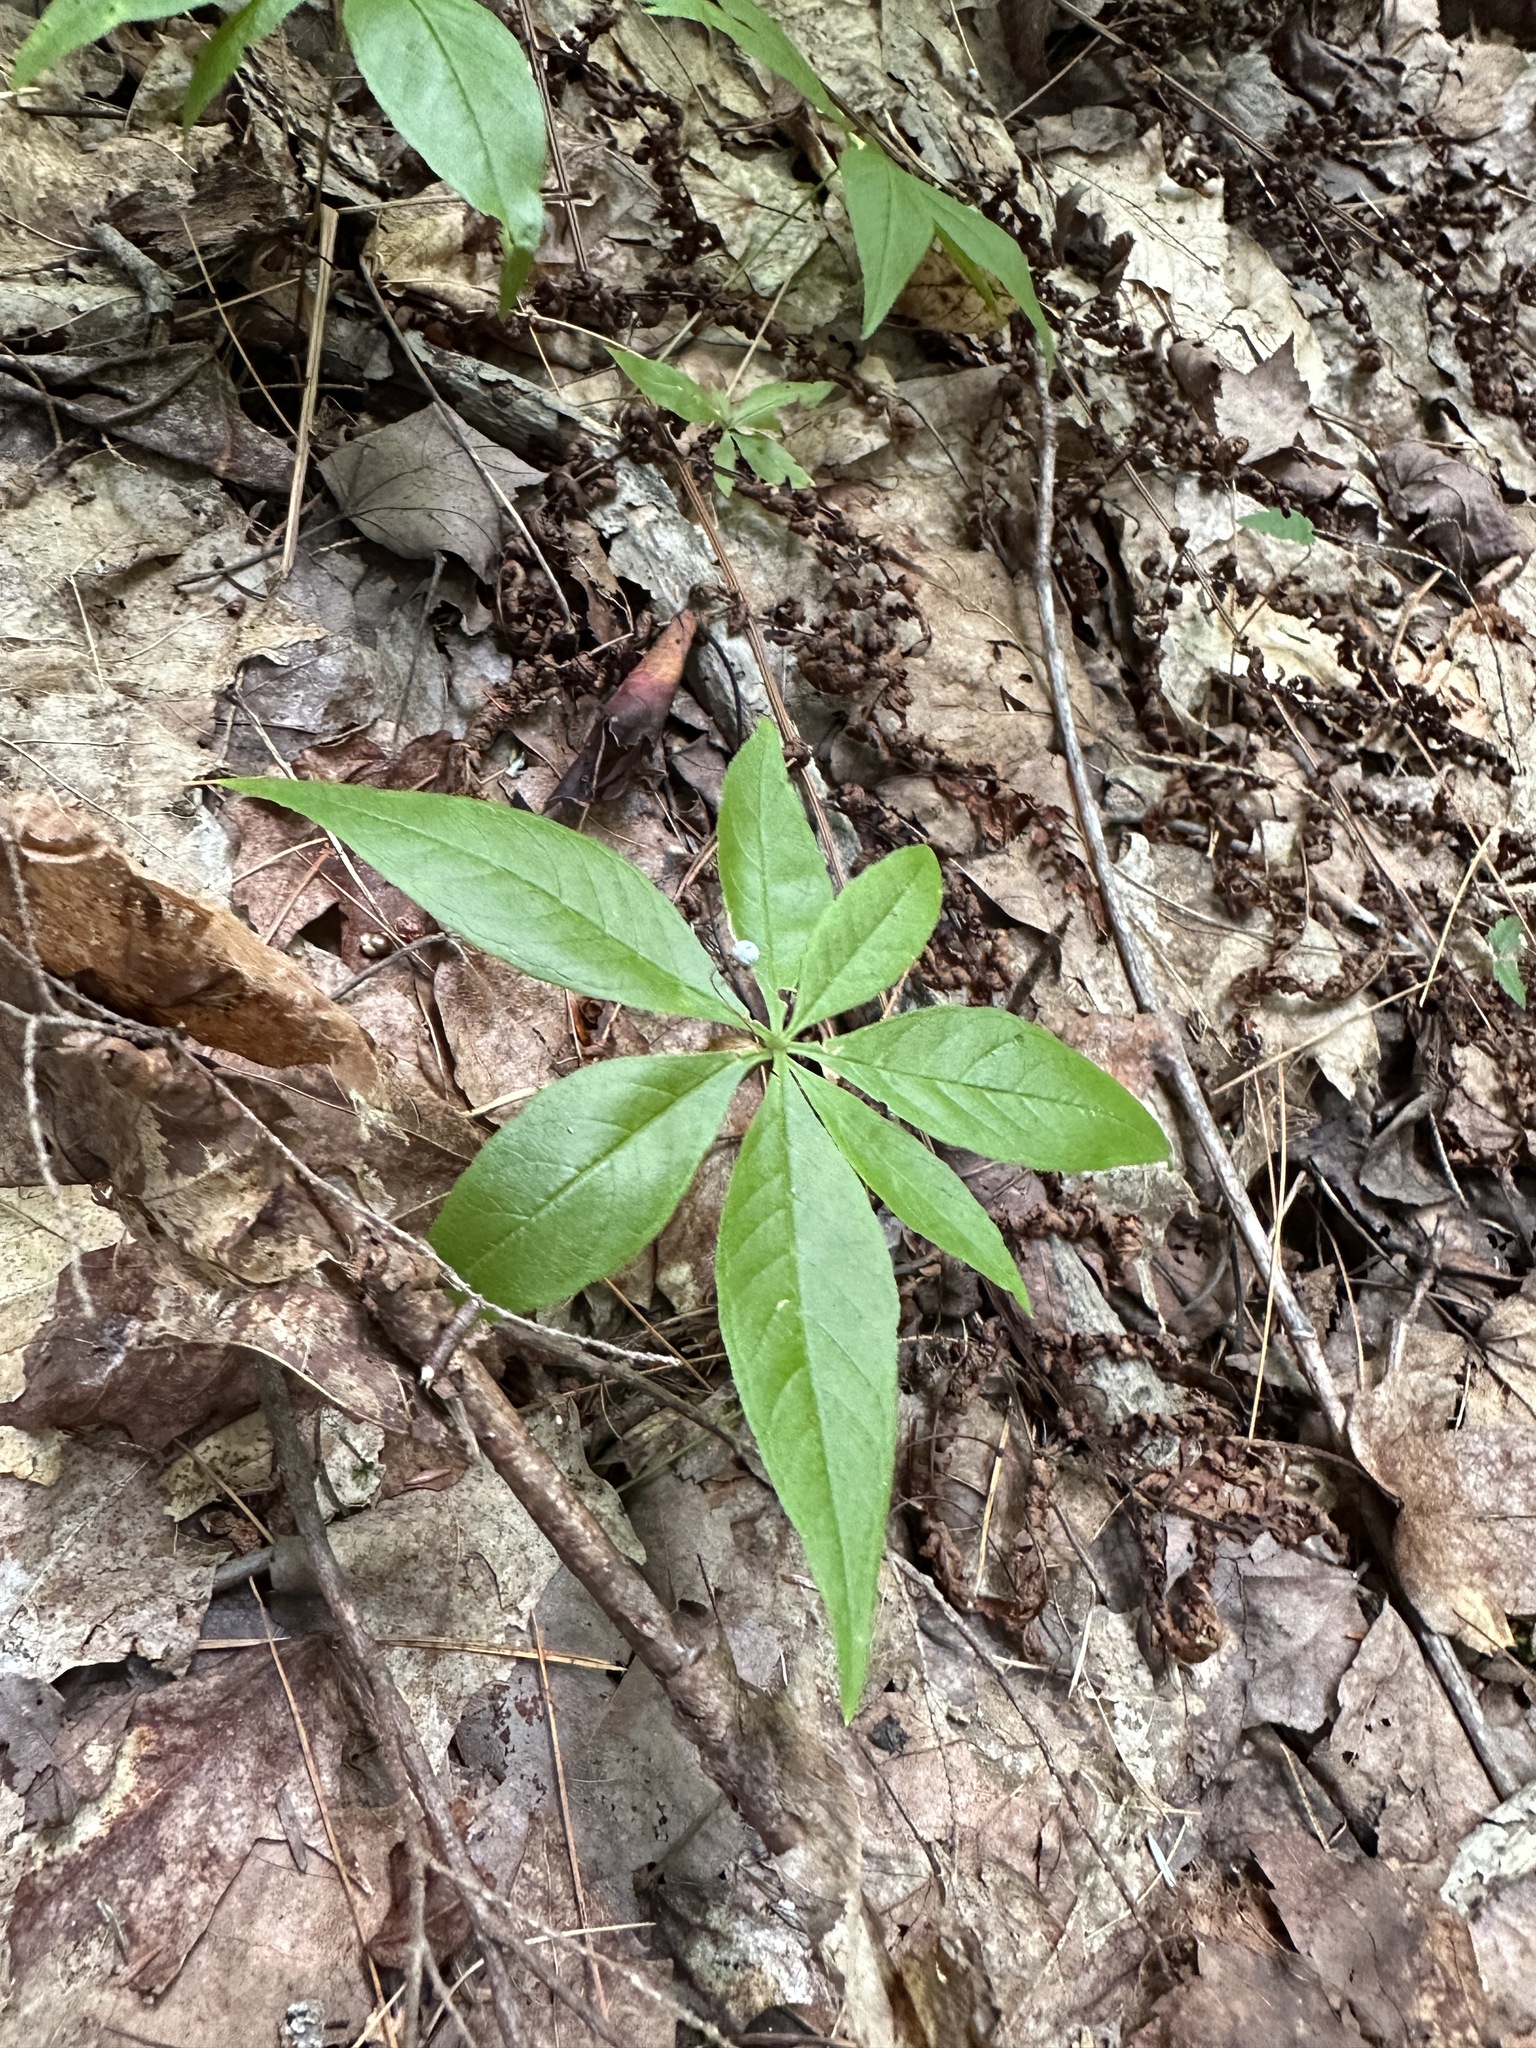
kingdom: Plantae
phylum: Tracheophyta
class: Magnoliopsida
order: Ericales
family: Primulaceae
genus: Lysimachia
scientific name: Lysimachia borealis
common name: American starflower
